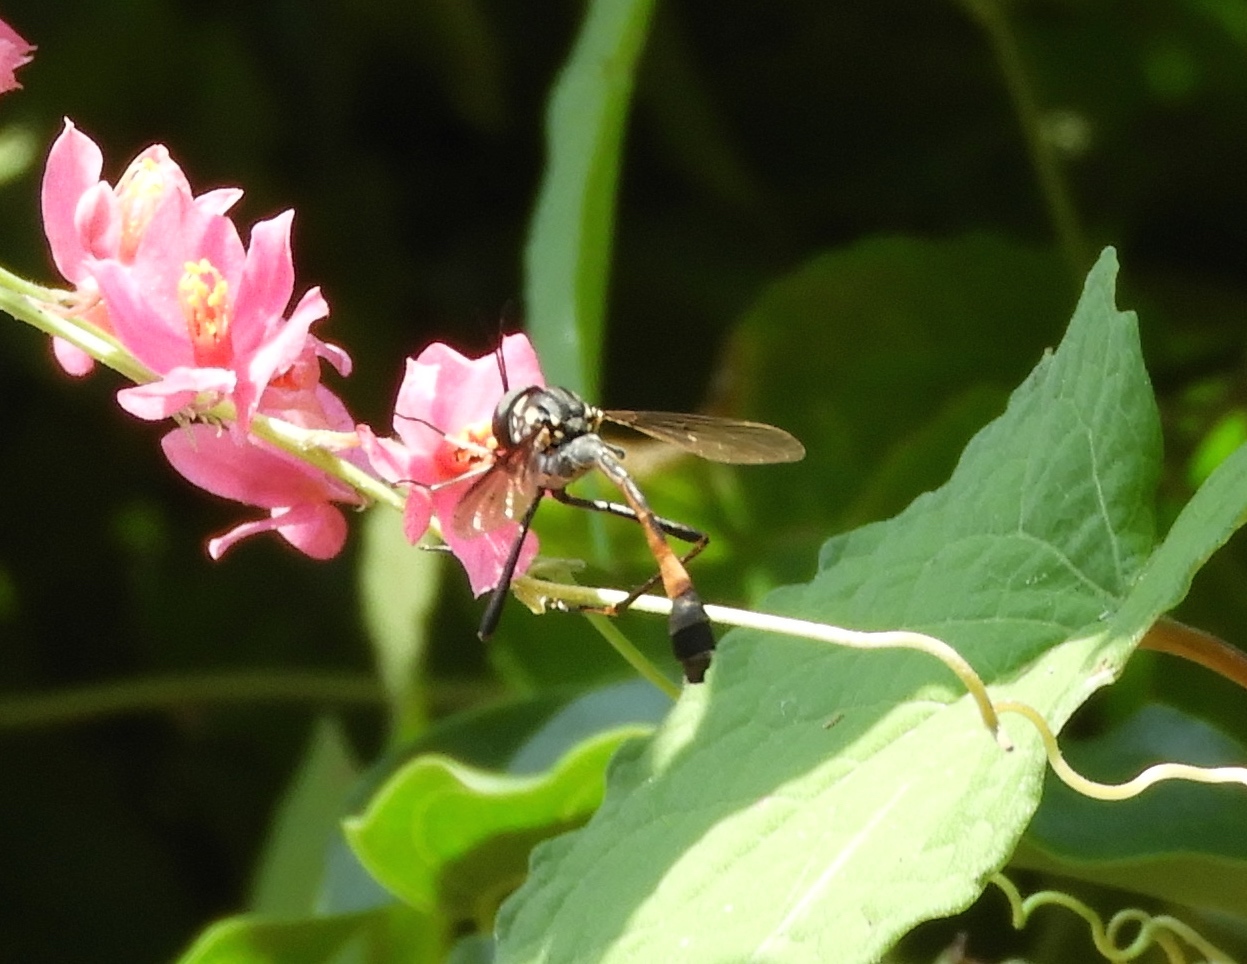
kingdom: Animalia
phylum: Arthropoda
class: Insecta
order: Diptera
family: Bombyliidae
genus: Systropus
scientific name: Systropus
